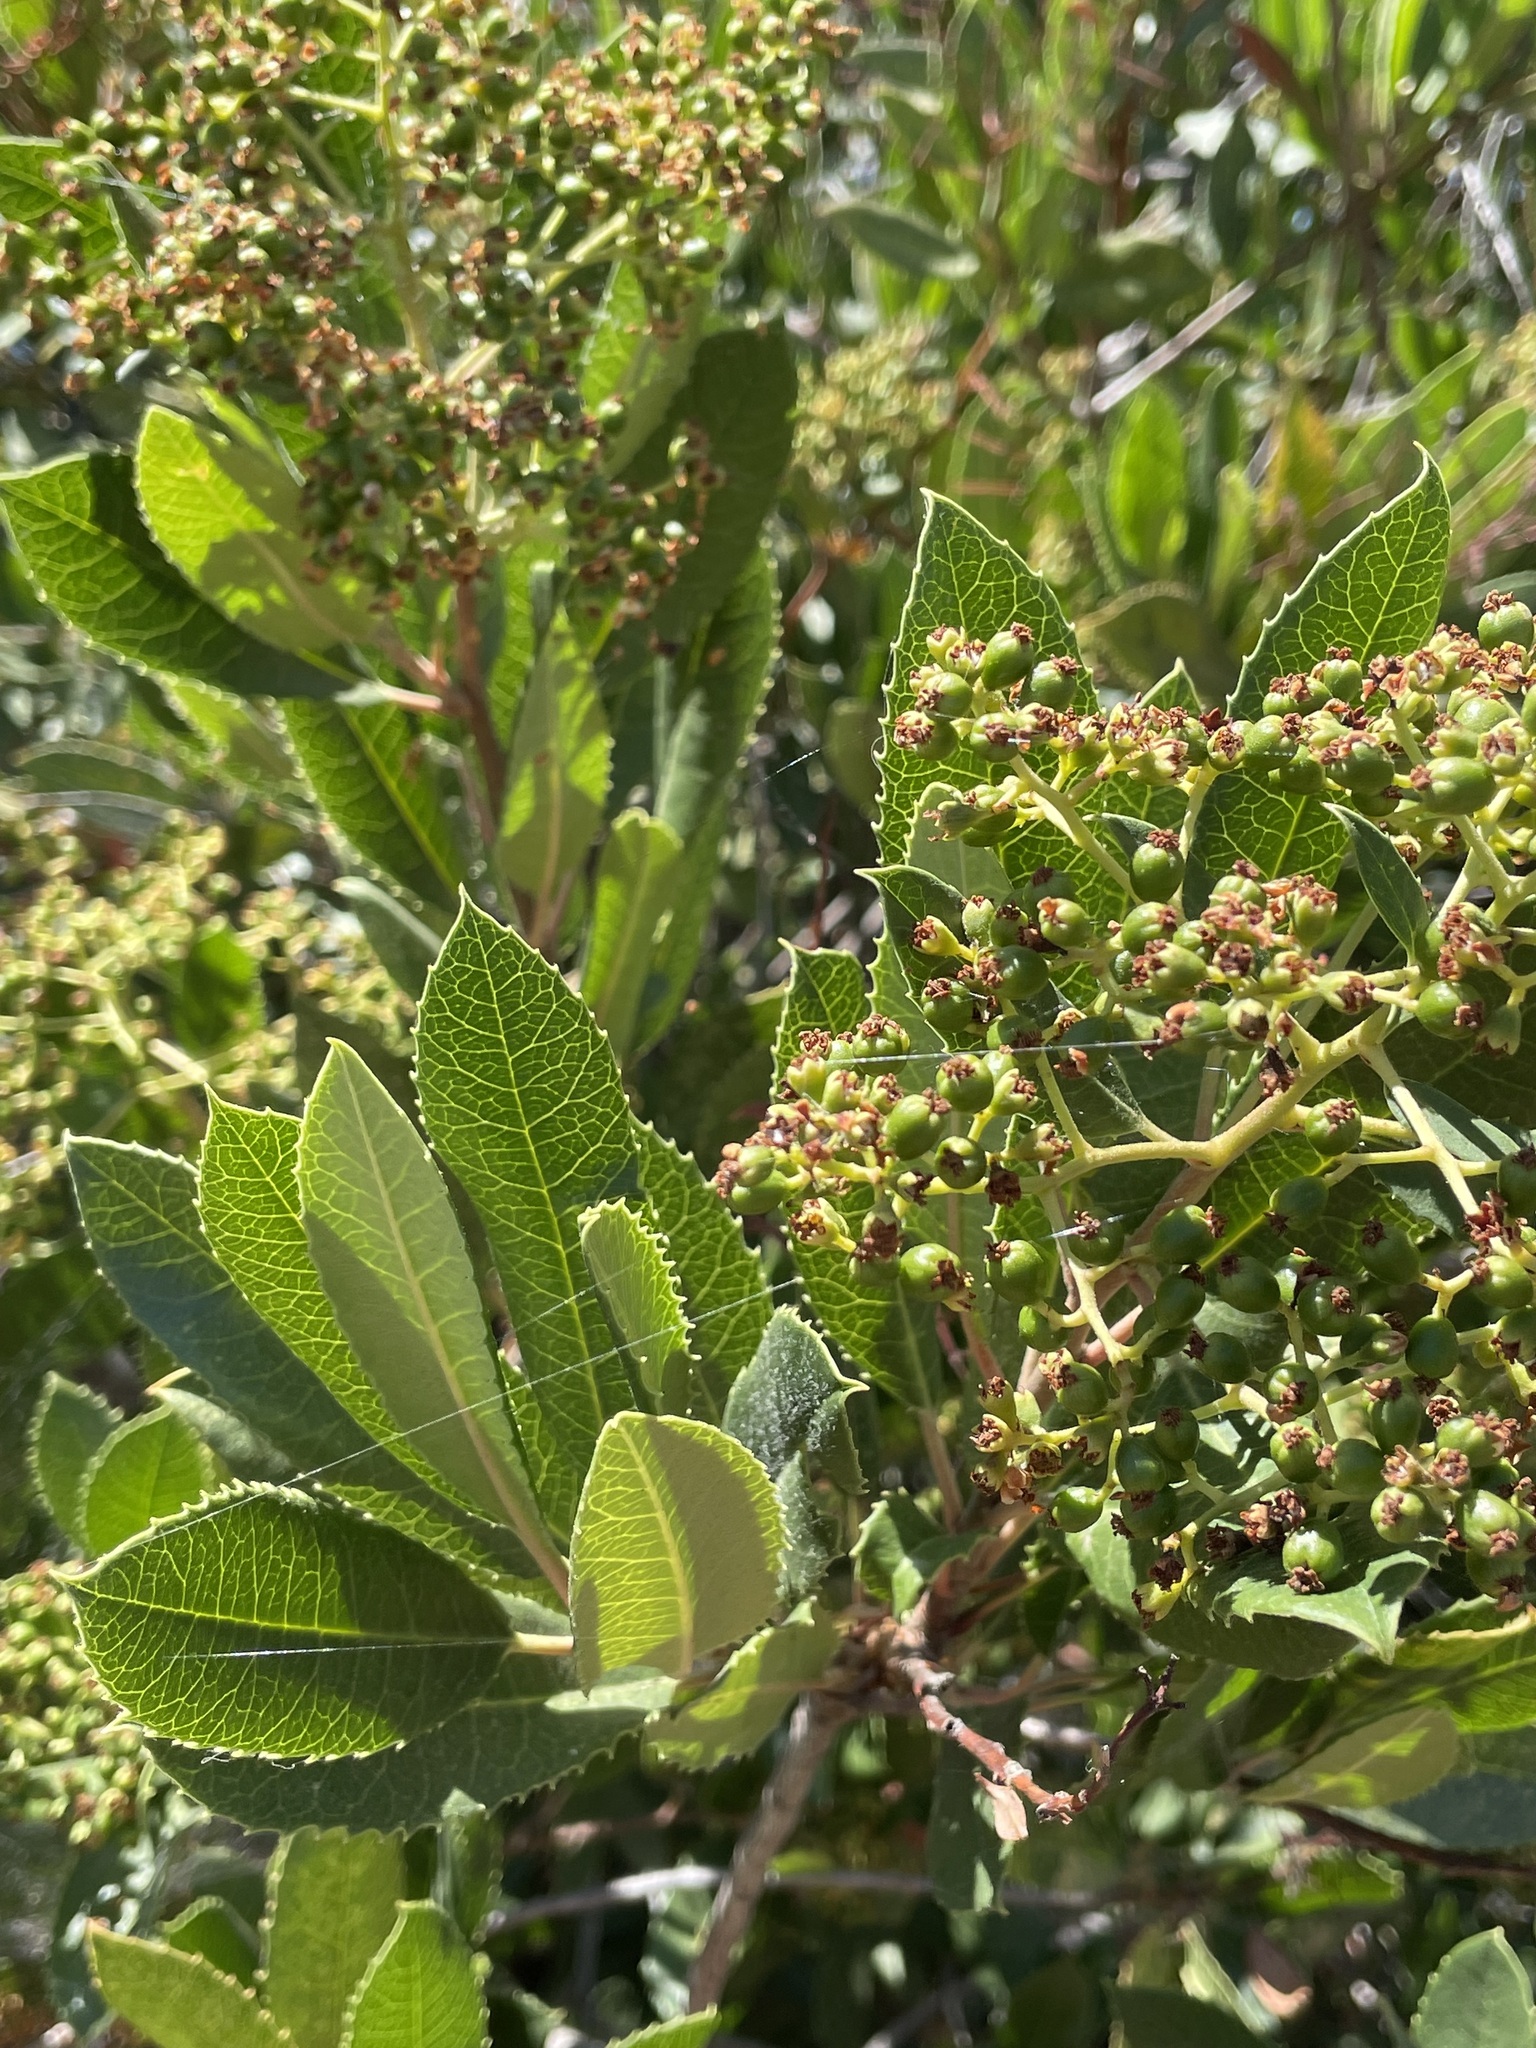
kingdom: Plantae
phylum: Tracheophyta
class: Magnoliopsida
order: Rosales
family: Rosaceae
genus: Heteromeles
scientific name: Heteromeles arbutifolia
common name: California-holly
